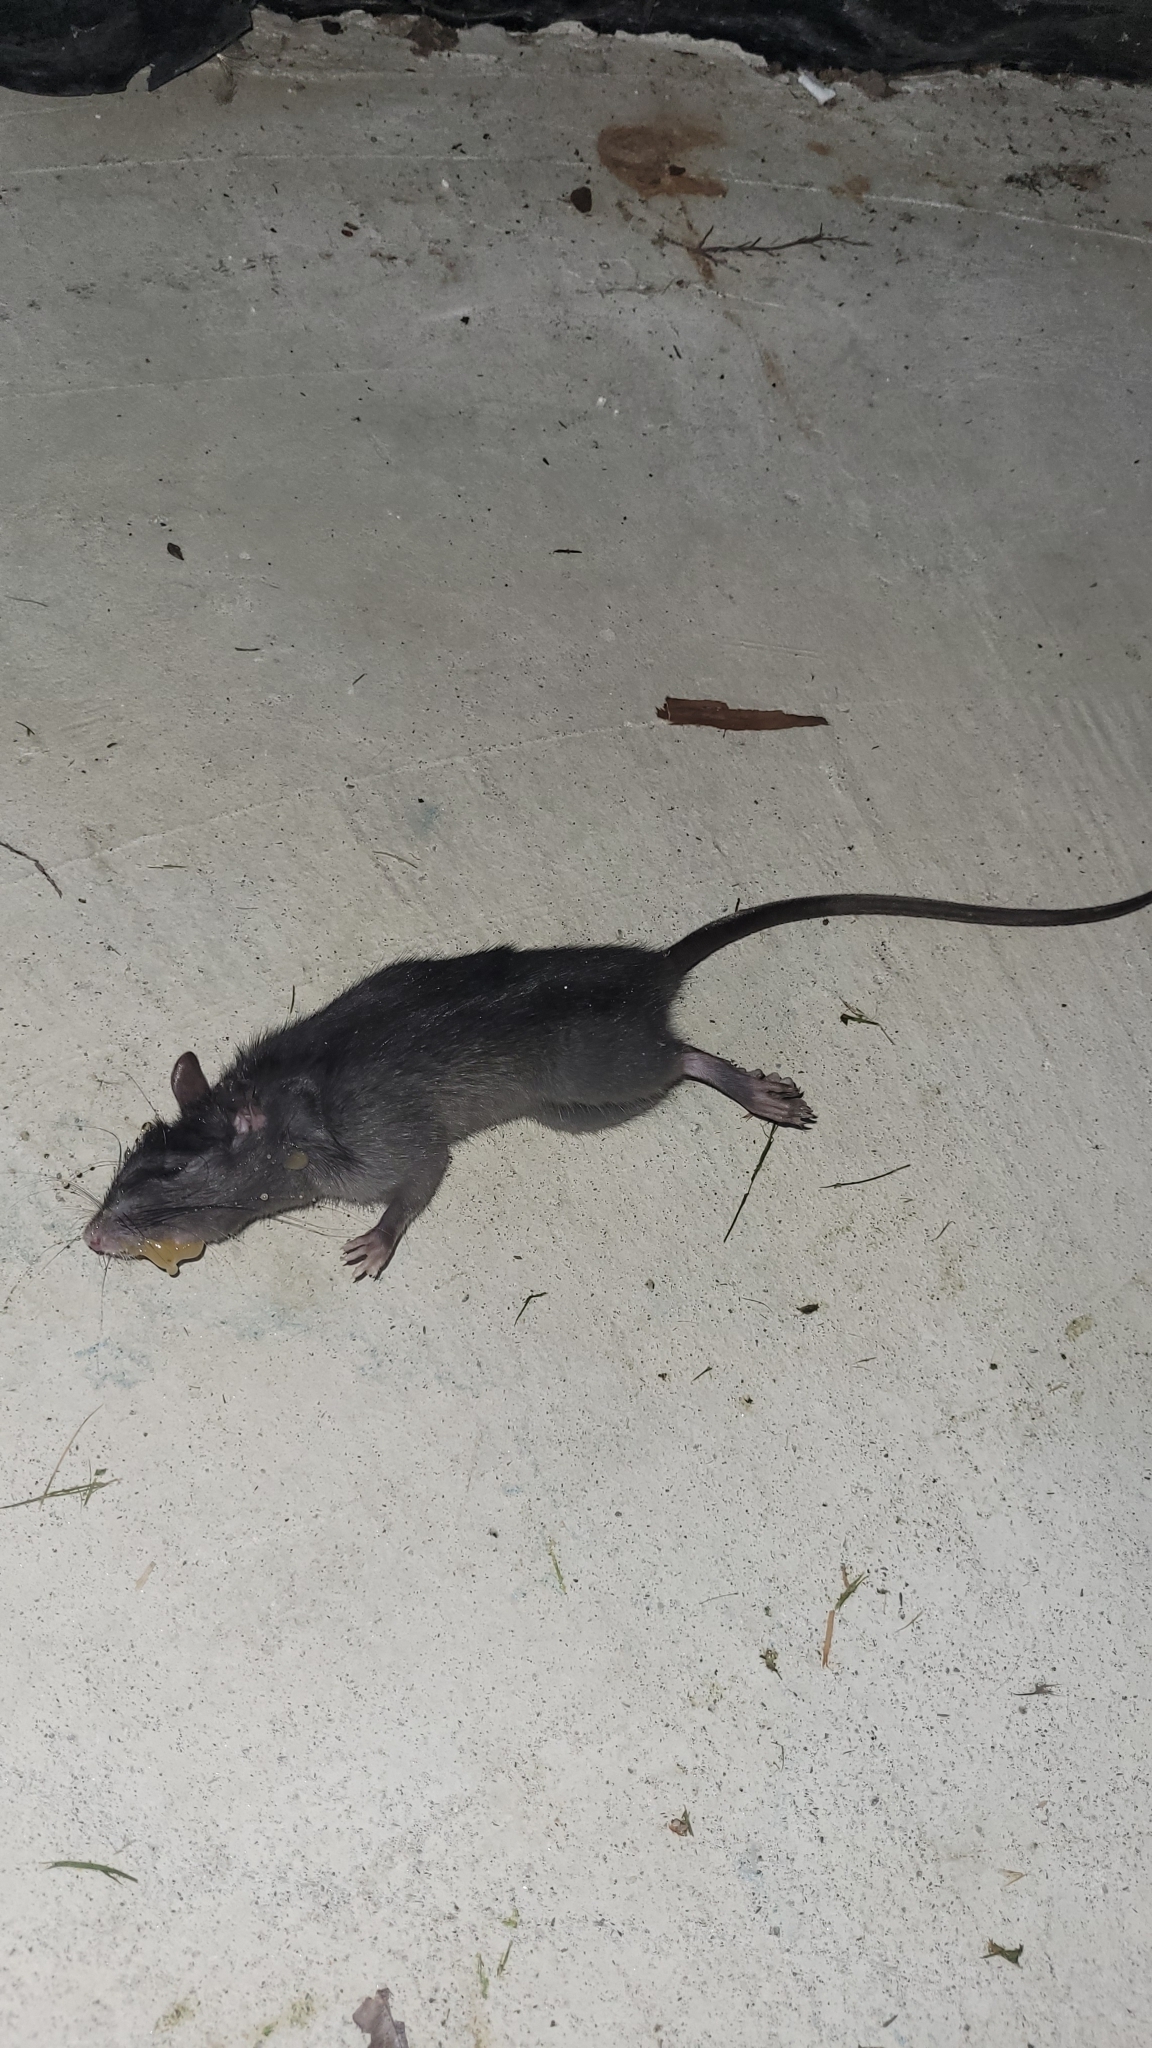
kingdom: Animalia
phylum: Chordata
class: Mammalia
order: Rodentia
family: Muridae
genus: Rattus
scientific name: Rattus rattus
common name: Black rat
